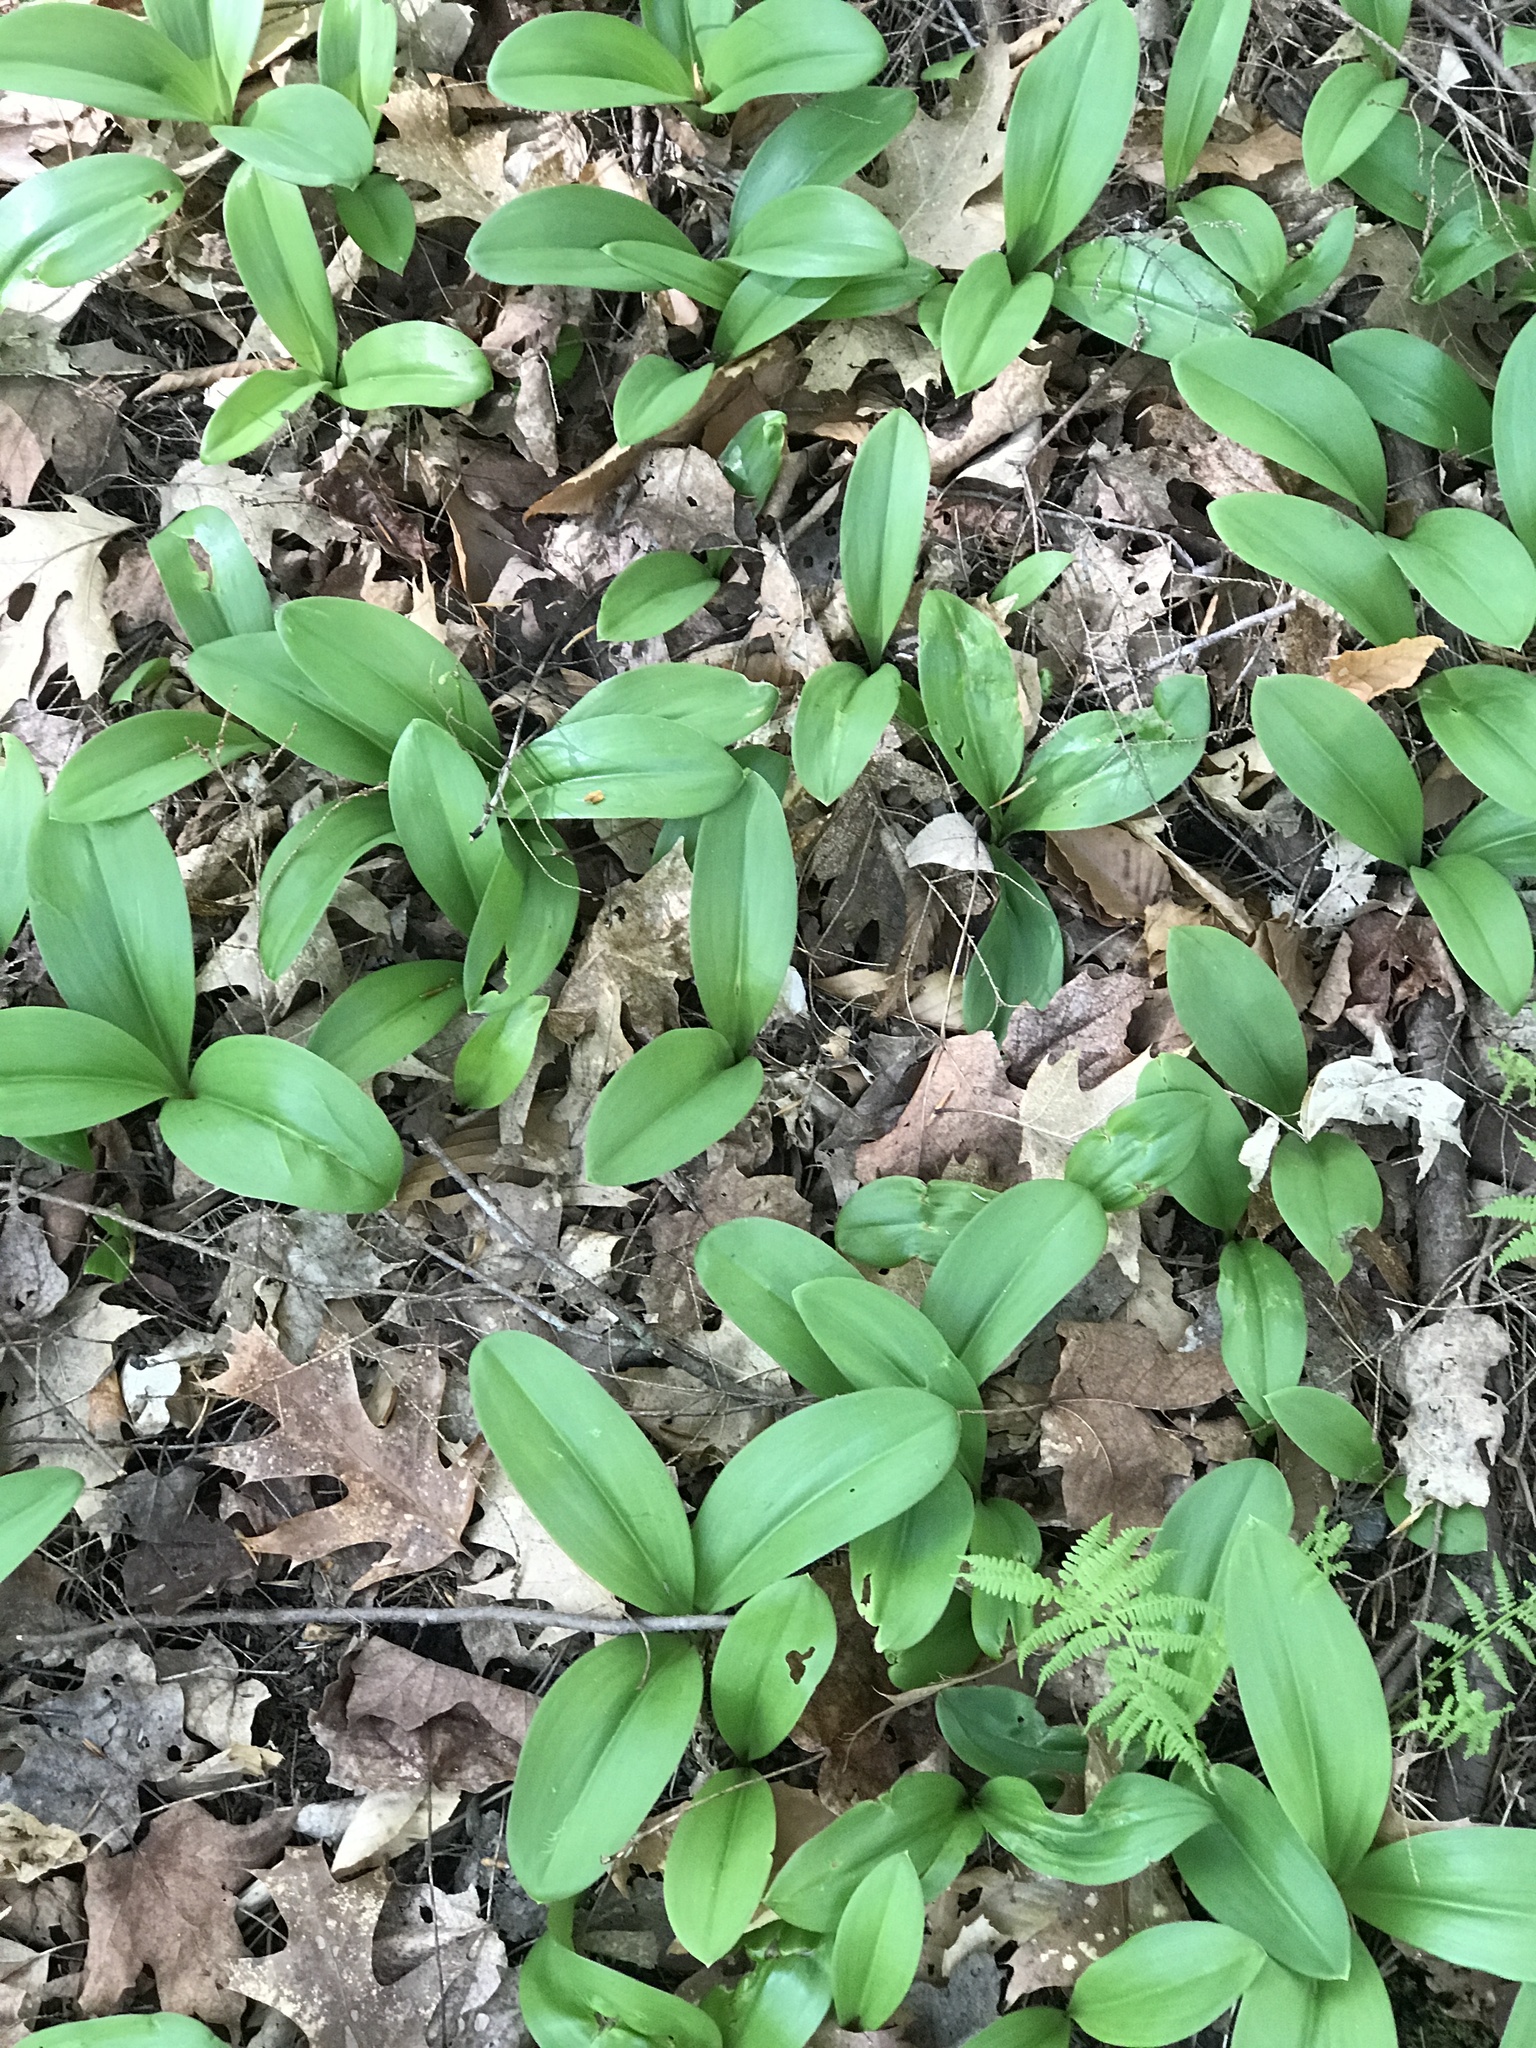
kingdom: Plantae
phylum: Tracheophyta
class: Liliopsida
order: Liliales
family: Liliaceae
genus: Clintonia
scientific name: Clintonia borealis
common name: Yellow clintonia
